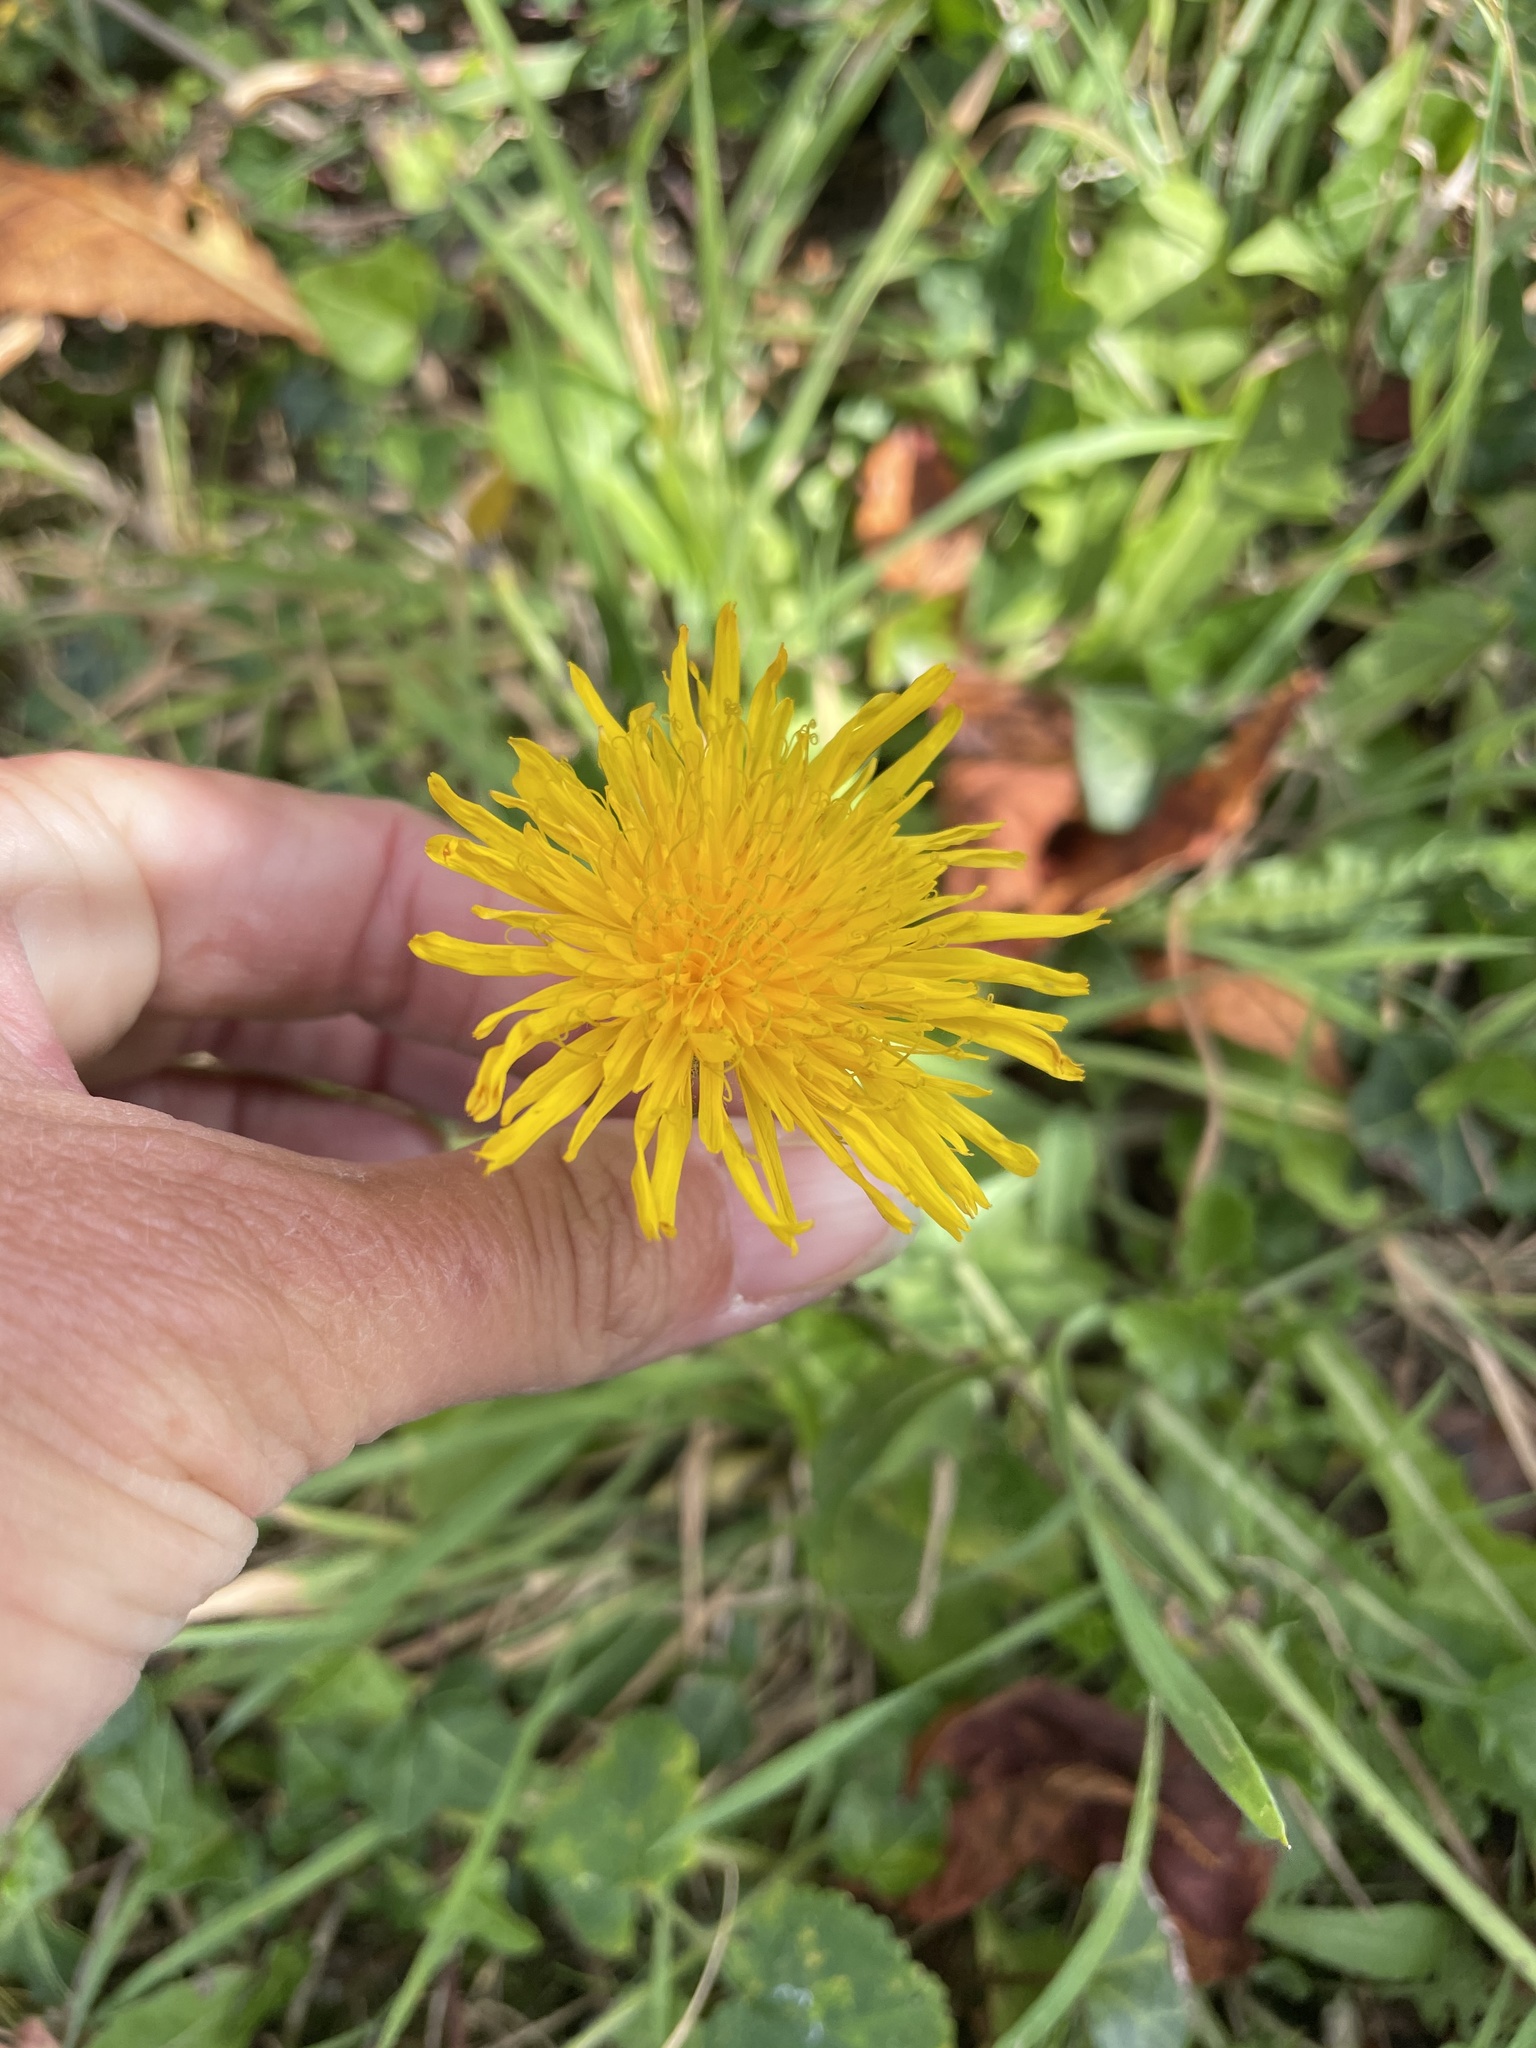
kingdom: Plantae
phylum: Tracheophyta
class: Magnoliopsida
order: Asterales
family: Asteraceae
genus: Sonchus
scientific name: Sonchus arvensis
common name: Perennial sow-thistle
